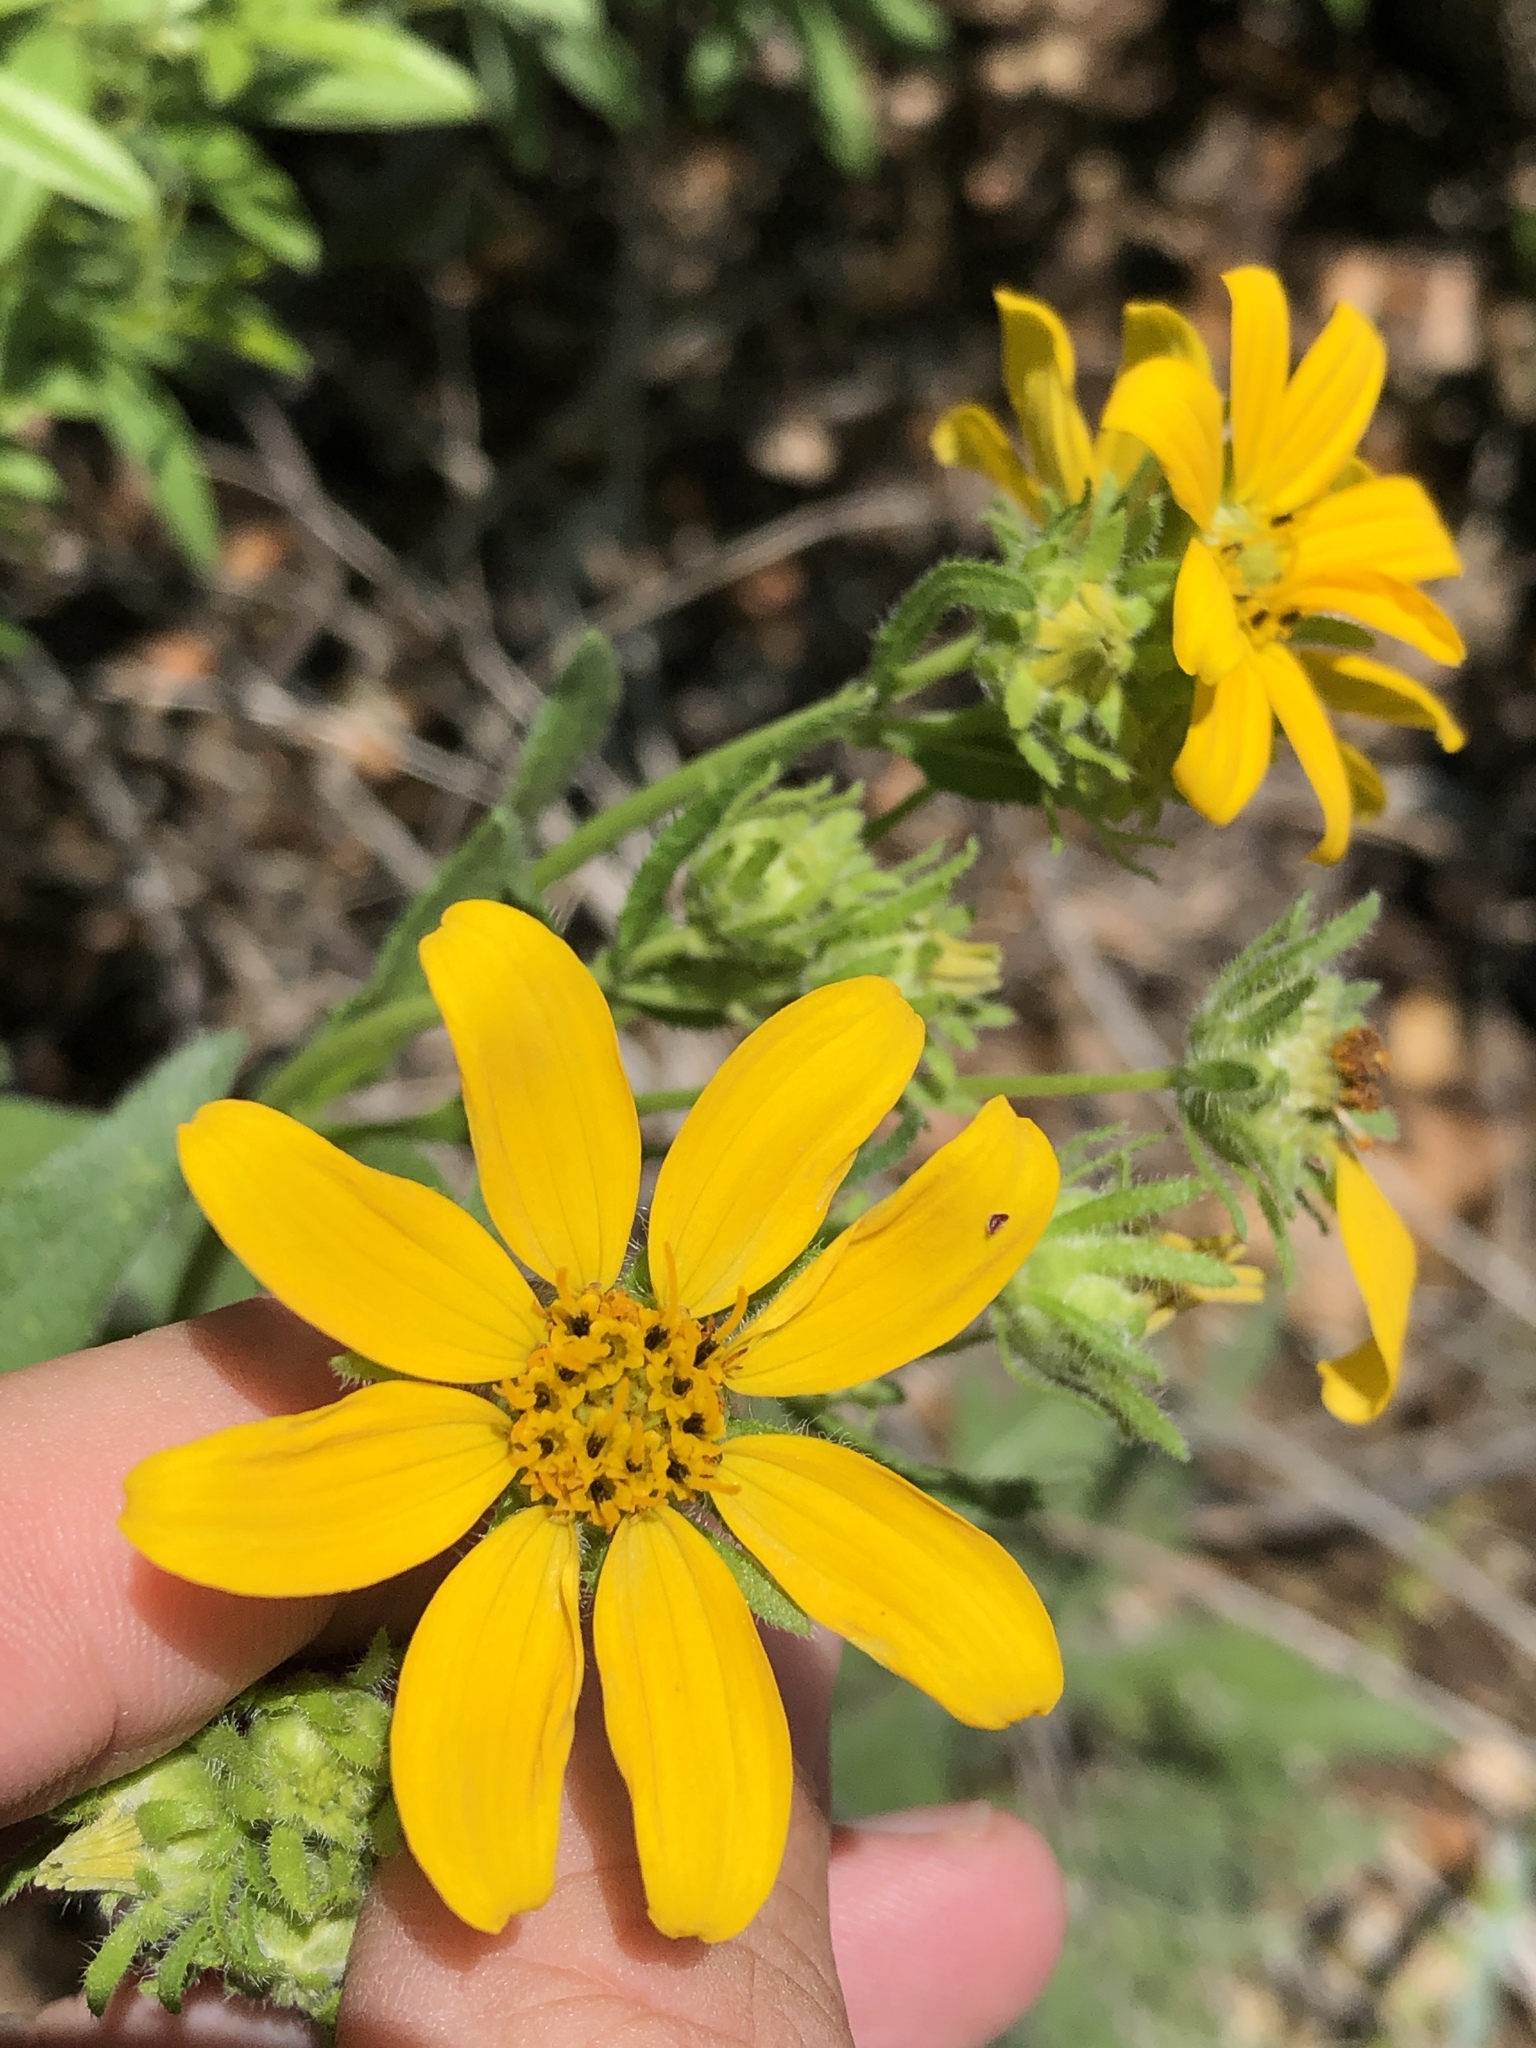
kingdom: Plantae
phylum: Tracheophyta
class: Magnoliopsida
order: Asterales
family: Asteraceae
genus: Engelmannia
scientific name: Engelmannia peristenia
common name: Engelmann's daisy
